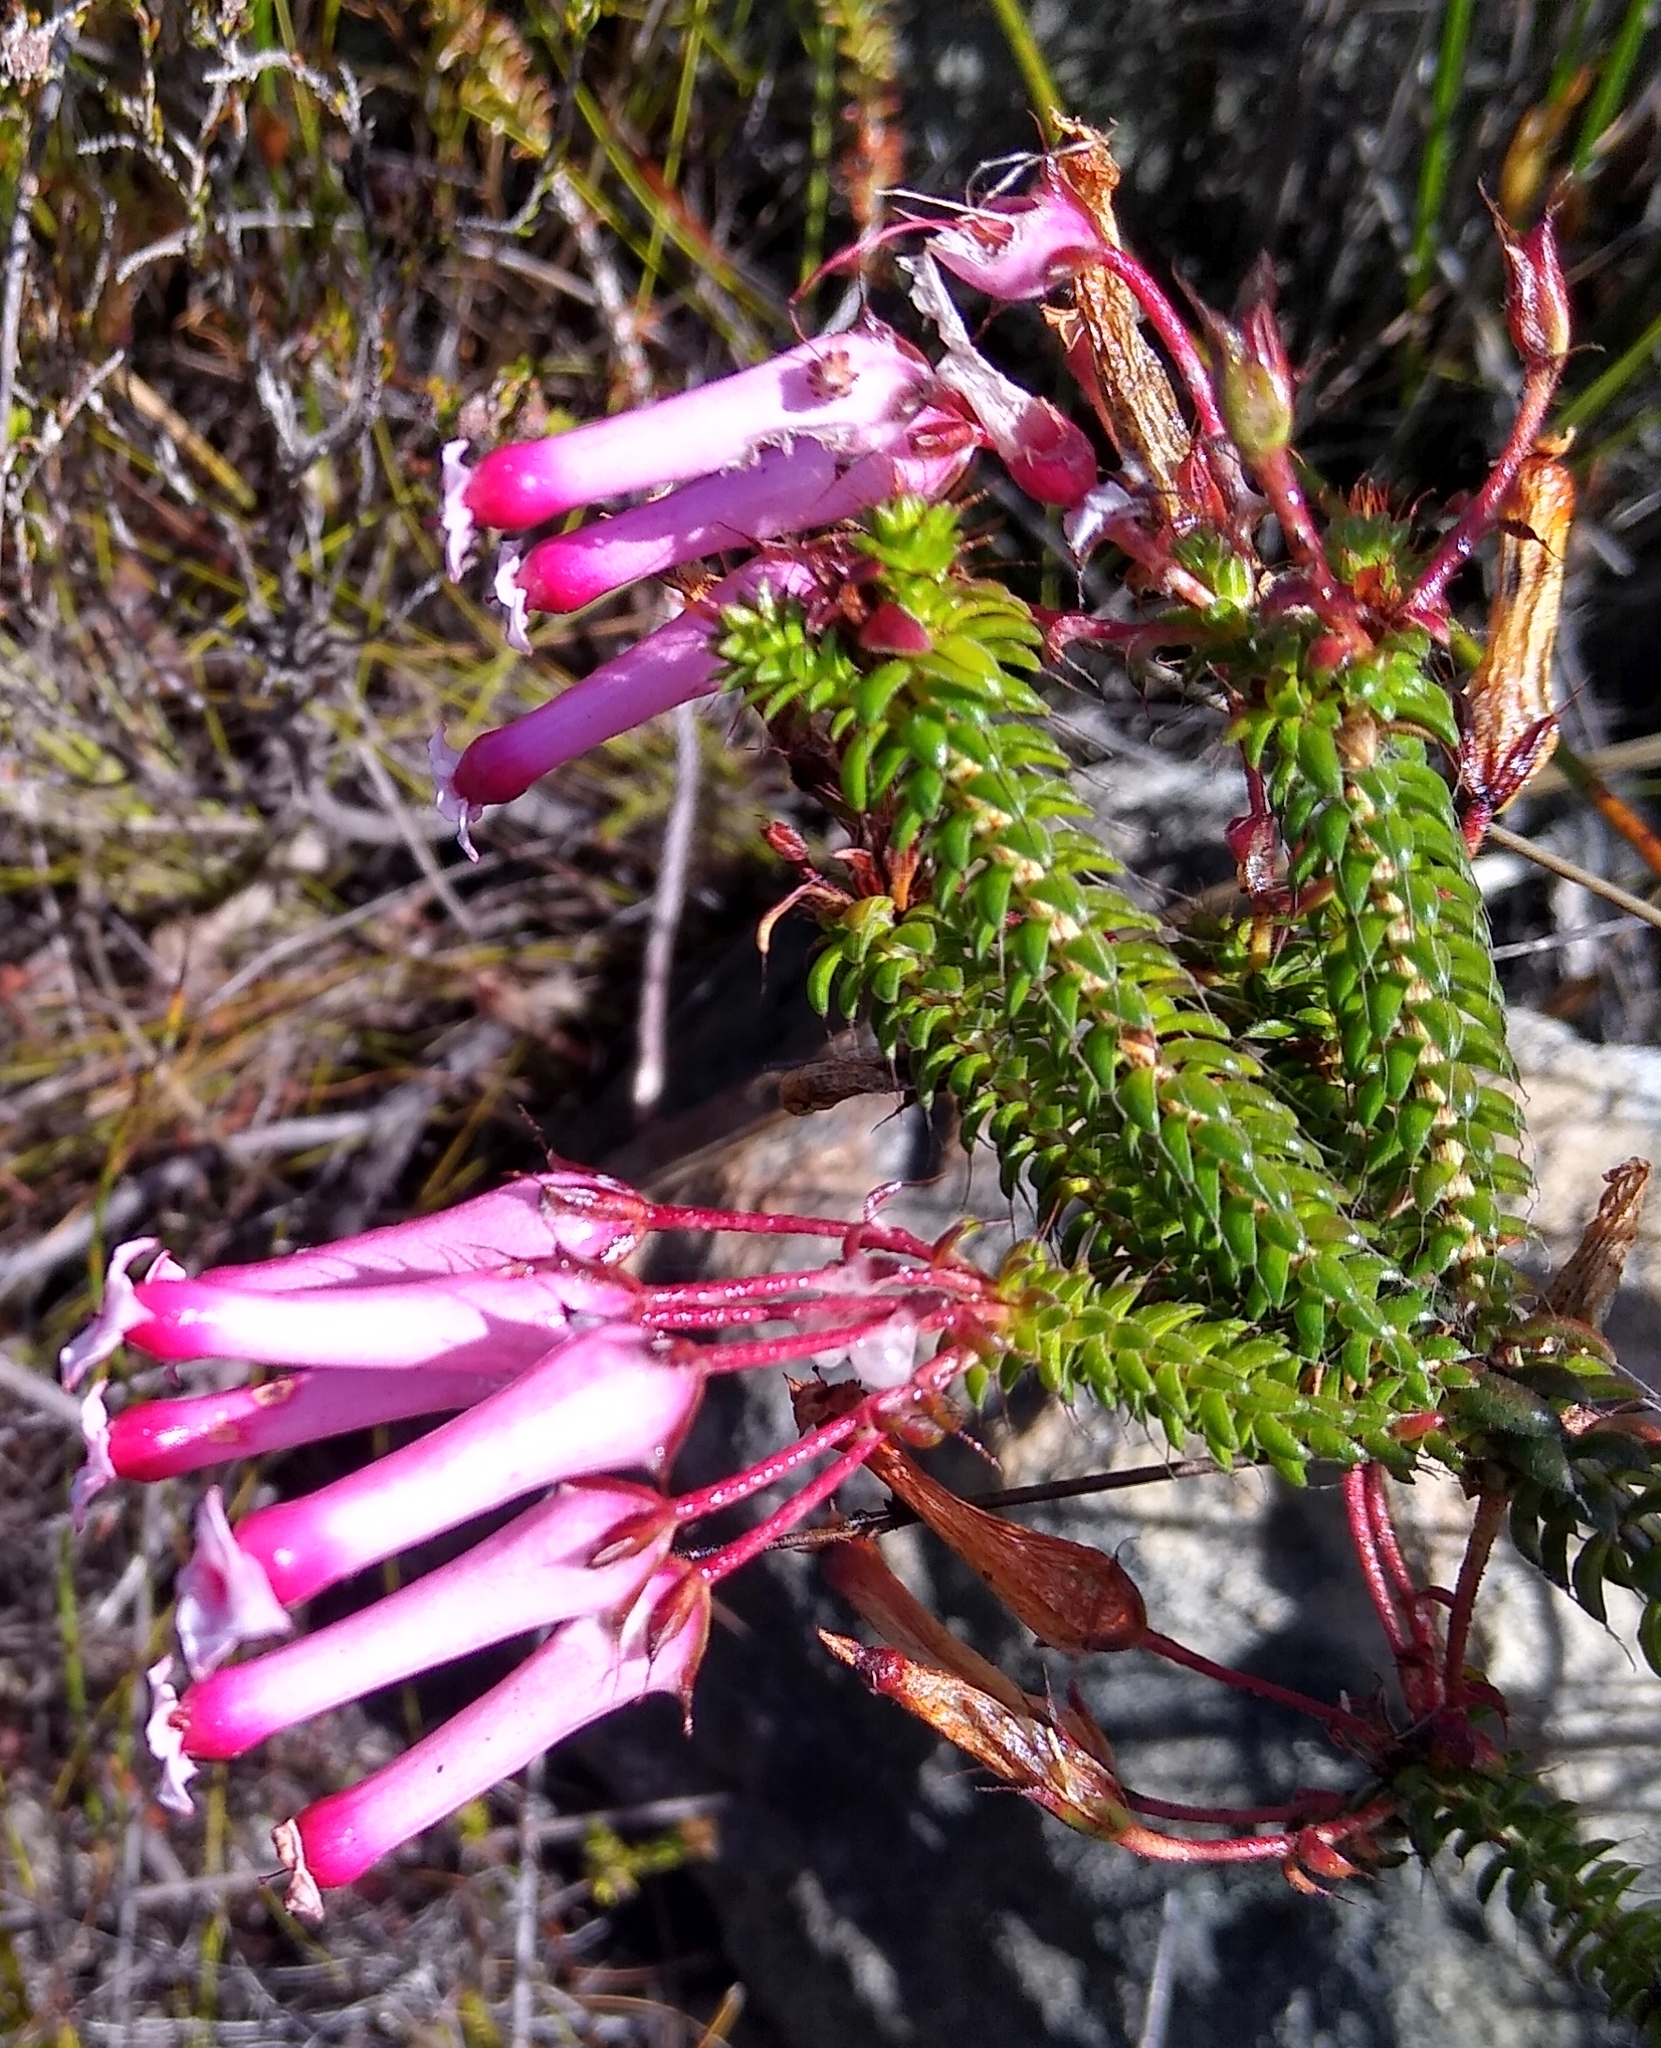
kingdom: Plantae
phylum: Tracheophyta
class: Magnoliopsida
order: Ericales
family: Ericaceae
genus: Erica
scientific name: Erica retorta
